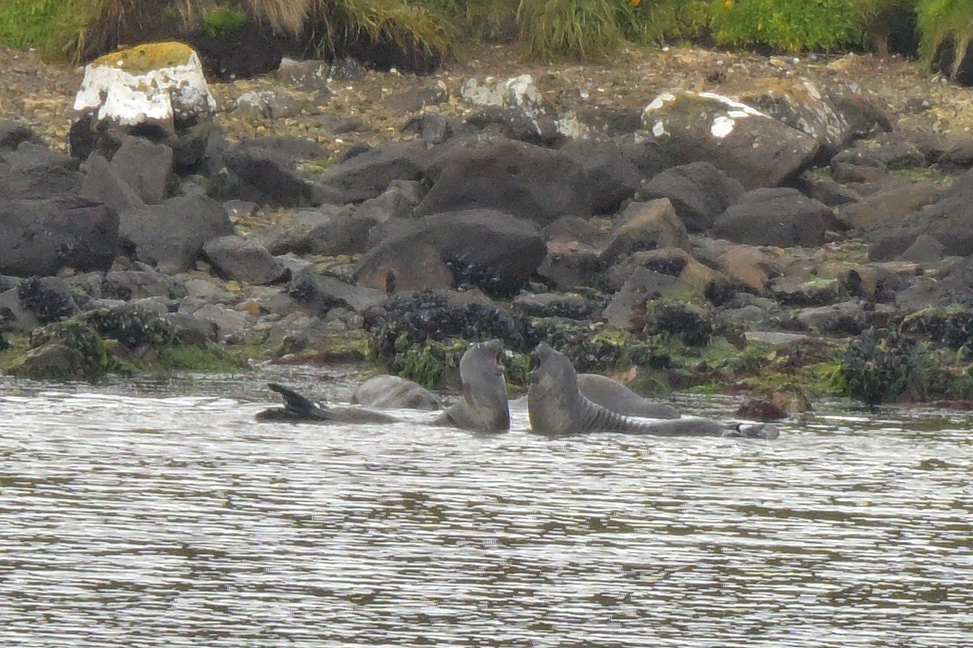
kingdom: Animalia
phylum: Chordata
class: Mammalia
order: Carnivora
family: Phocidae
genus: Mirounga
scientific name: Mirounga leonina
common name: Southern elephant seal
